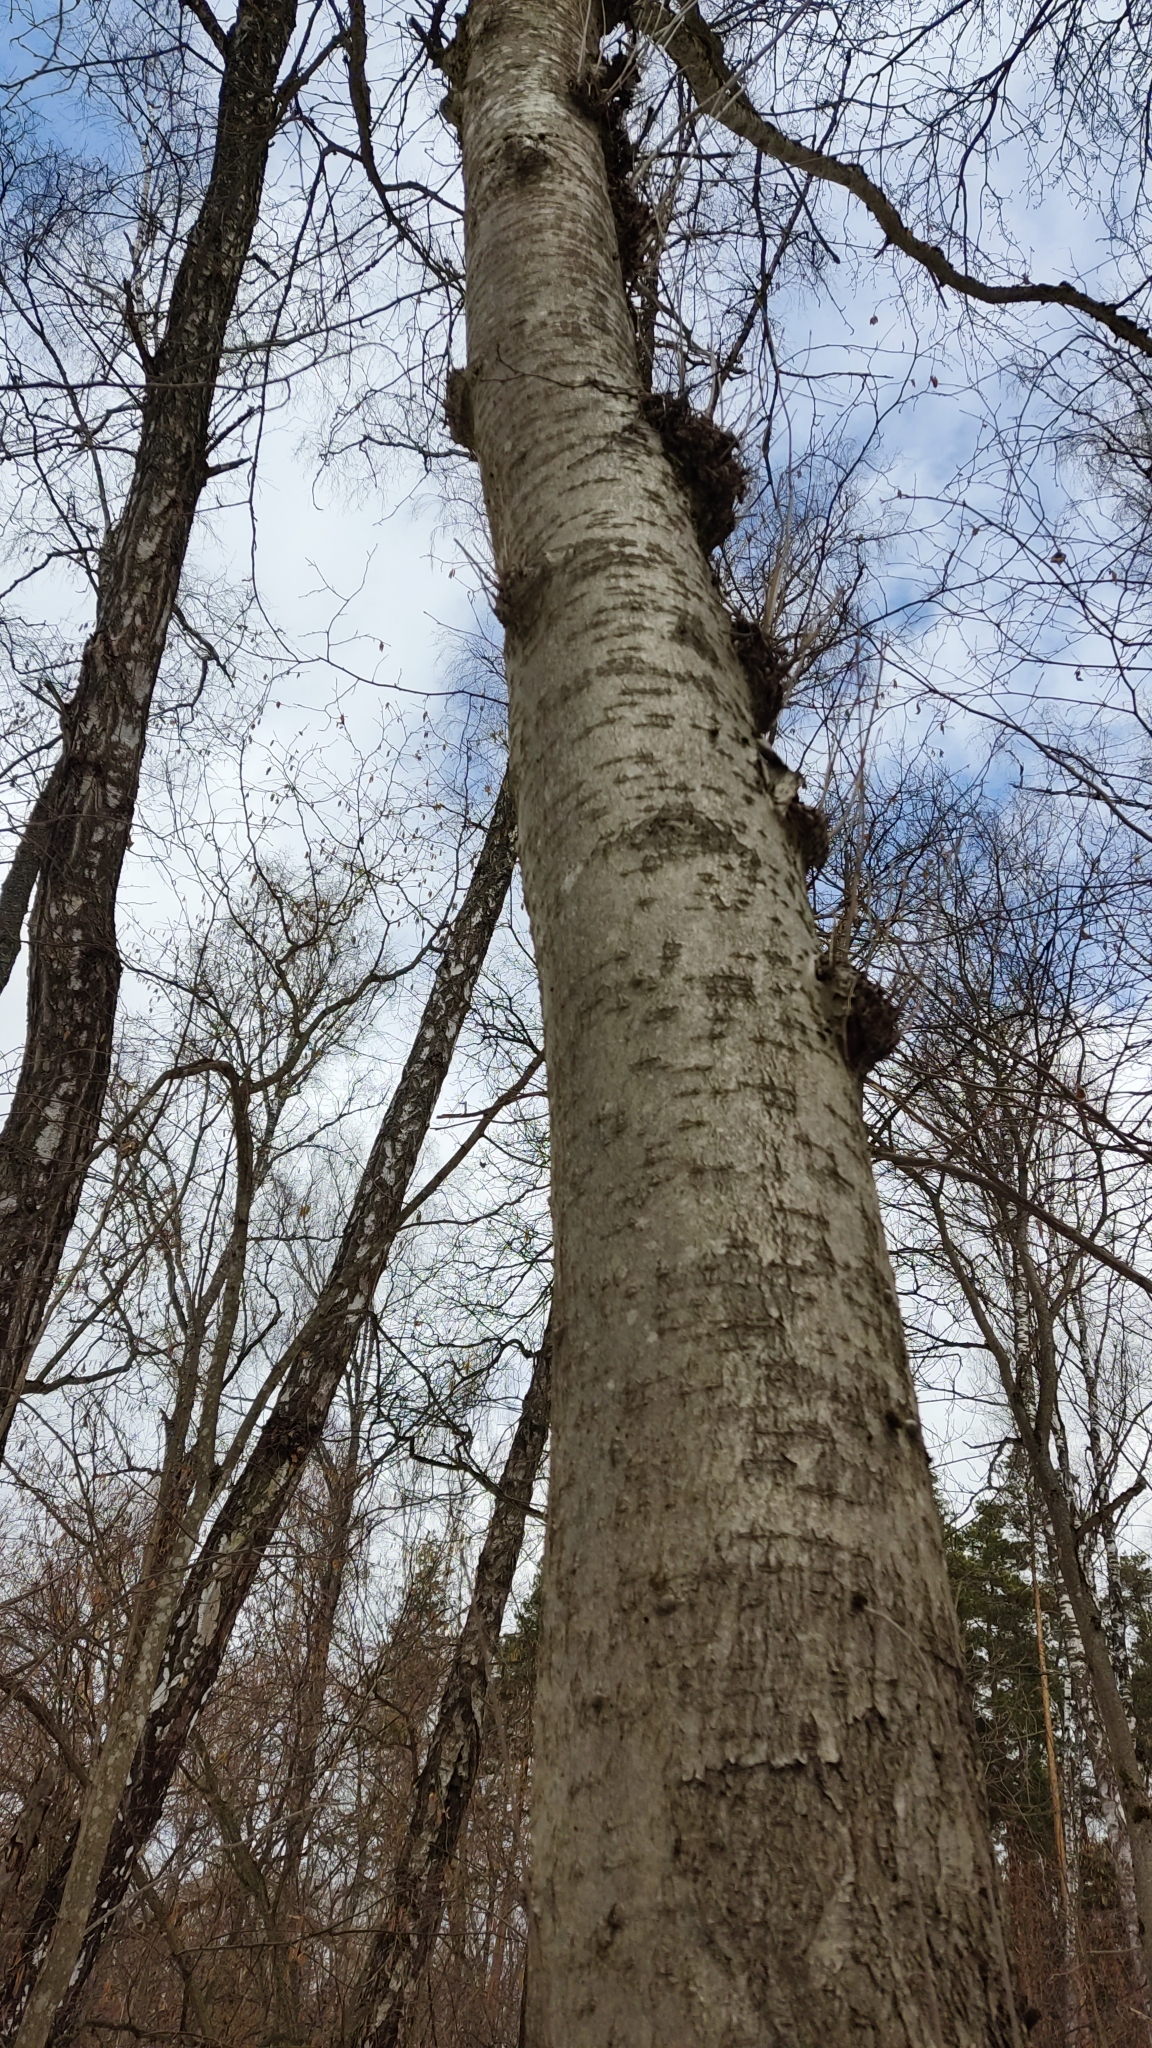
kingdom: Plantae
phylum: Tracheophyta
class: Magnoliopsida
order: Malpighiales
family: Salicaceae
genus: Populus
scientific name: Populus tremula
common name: European aspen
